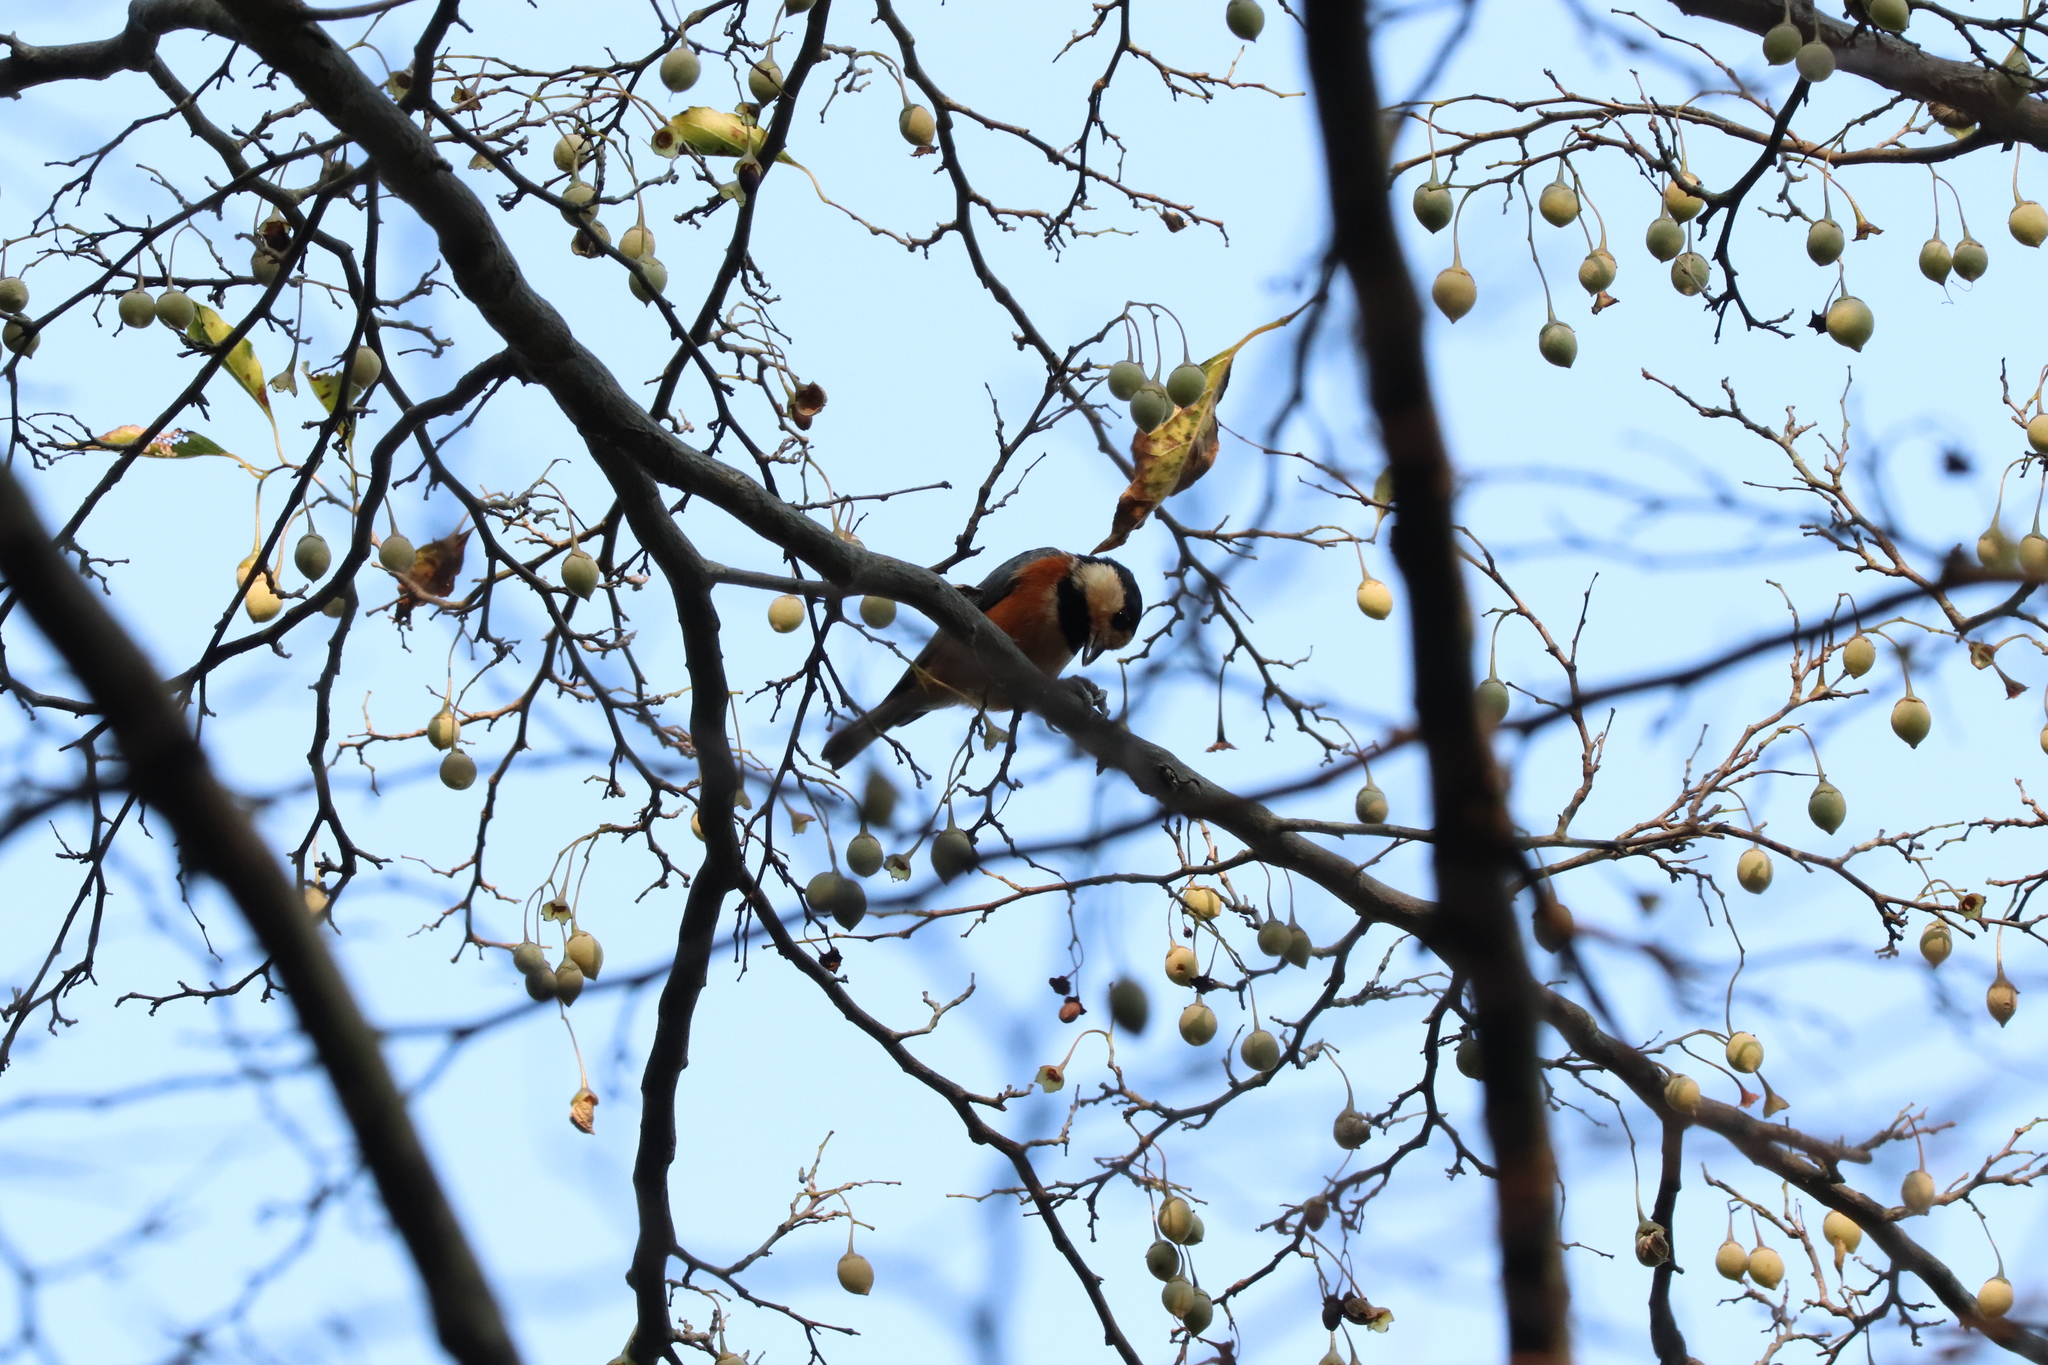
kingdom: Animalia
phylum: Chordata
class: Aves
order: Passeriformes
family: Paridae
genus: Poecile
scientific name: Poecile varius
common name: Varied tit
